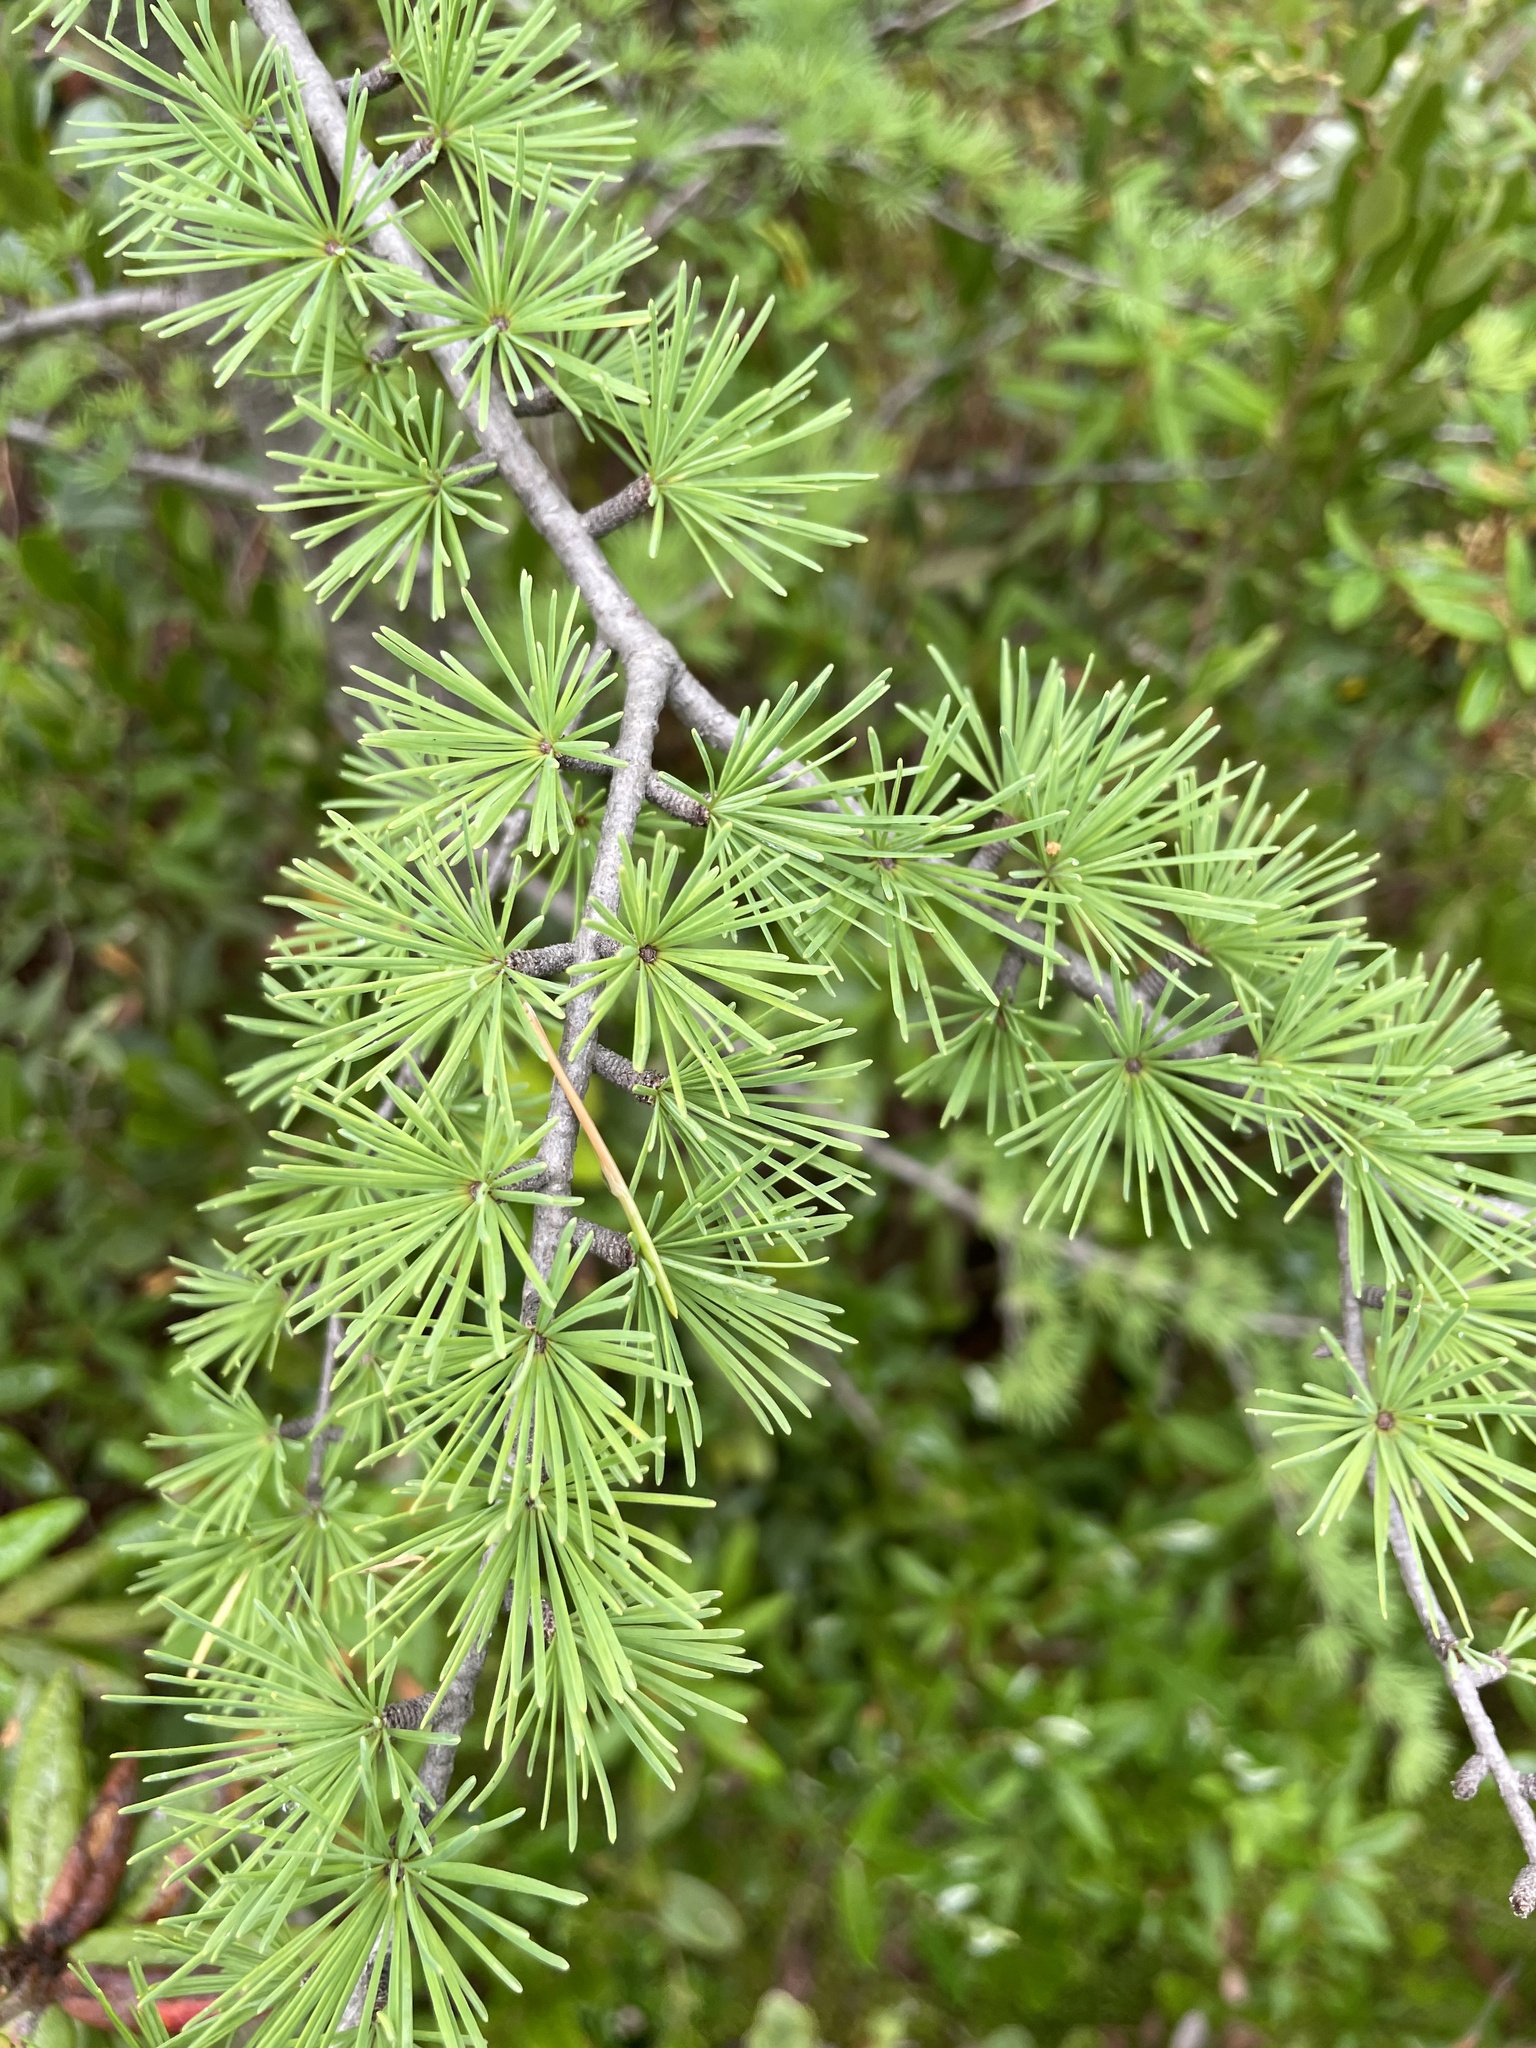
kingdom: Plantae
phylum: Tracheophyta
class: Pinopsida
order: Pinales
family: Pinaceae
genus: Larix
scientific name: Larix laricina
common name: American larch
